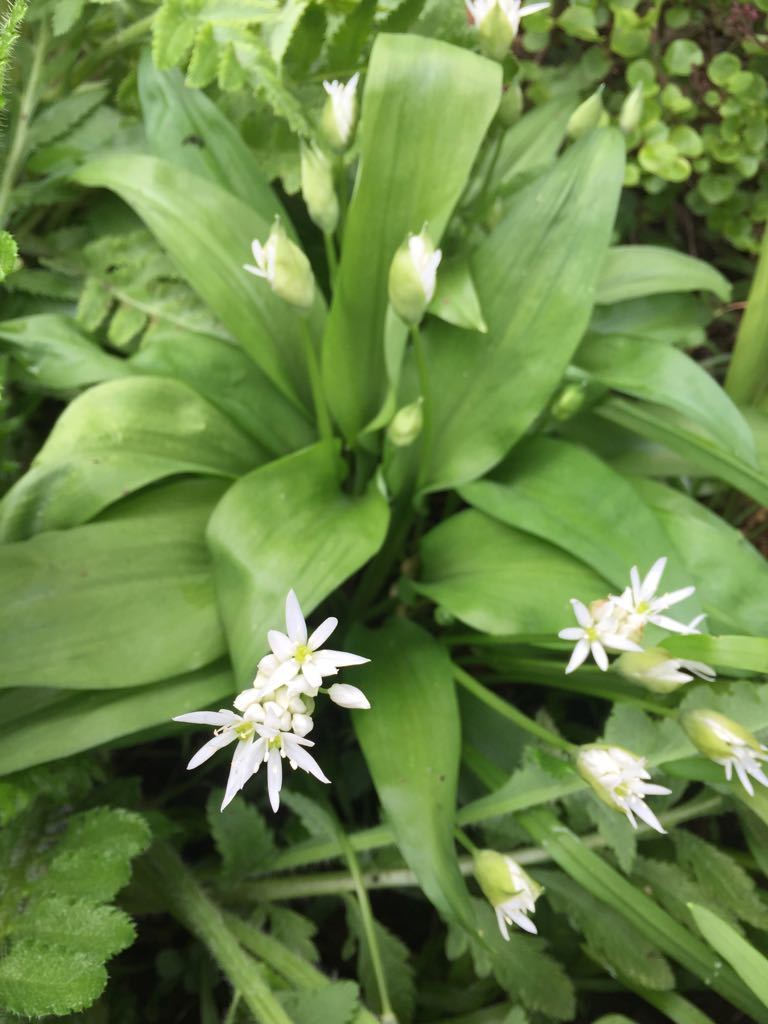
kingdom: Plantae
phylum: Tracheophyta
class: Liliopsida
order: Asparagales
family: Amaryllidaceae
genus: Allium
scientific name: Allium ursinum
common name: Ramsons
